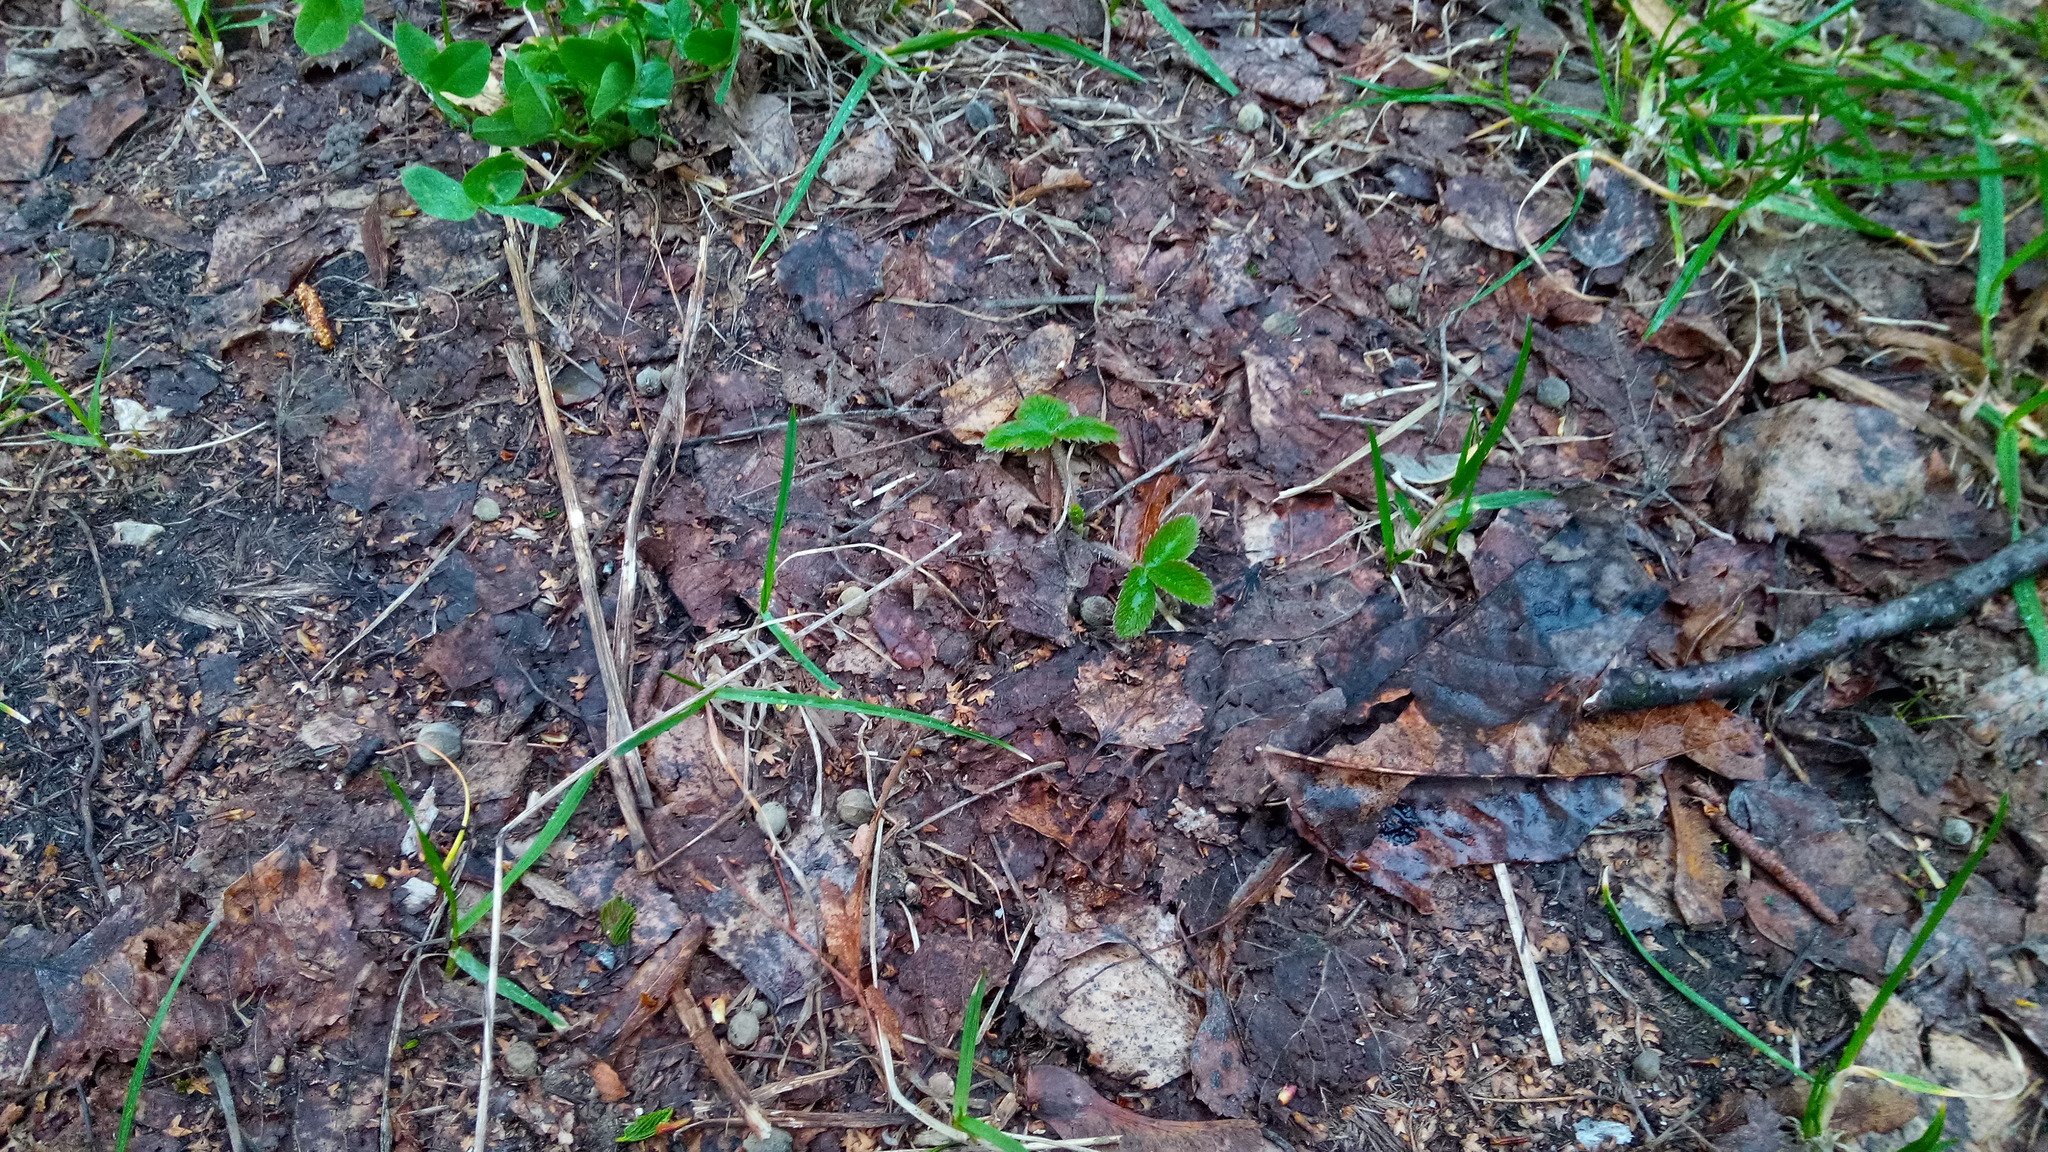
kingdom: Plantae
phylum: Tracheophyta
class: Magnoliopsida
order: Rosales
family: Rosaceae
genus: Fragaria
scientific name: Fragaria vesca
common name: Wild strawberry
